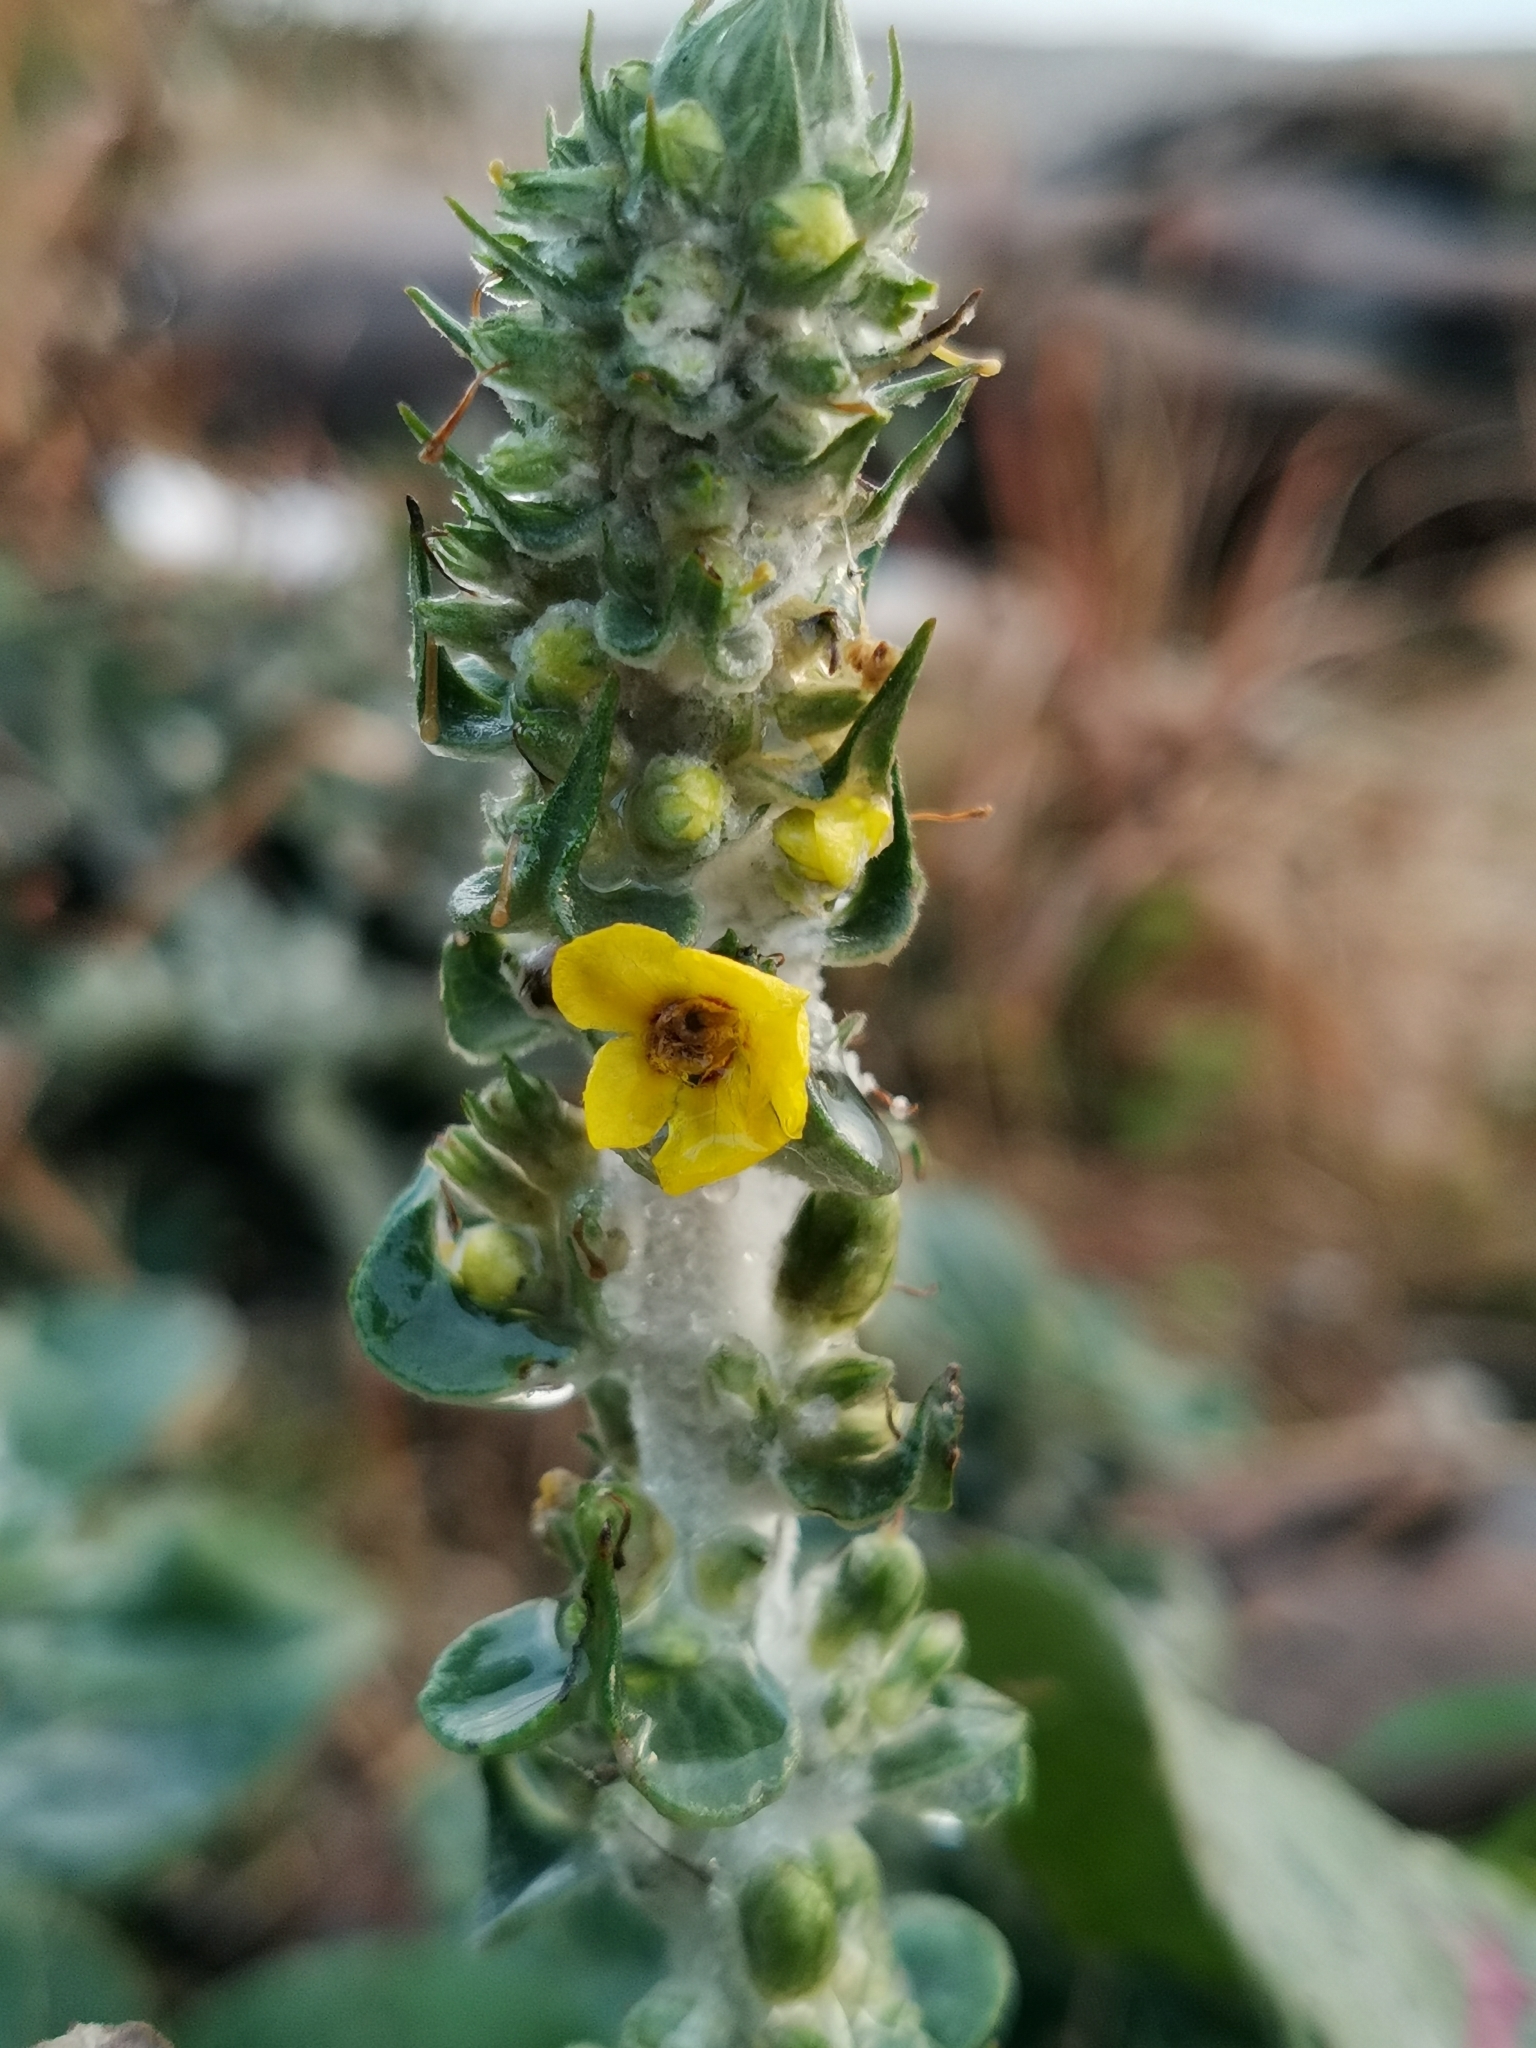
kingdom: Plantae
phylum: Tracheophyta
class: Magnoliopsida
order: Lamiales
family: Scrophulariaceae
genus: Verbascum
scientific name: Verbascum gnaphalodes
